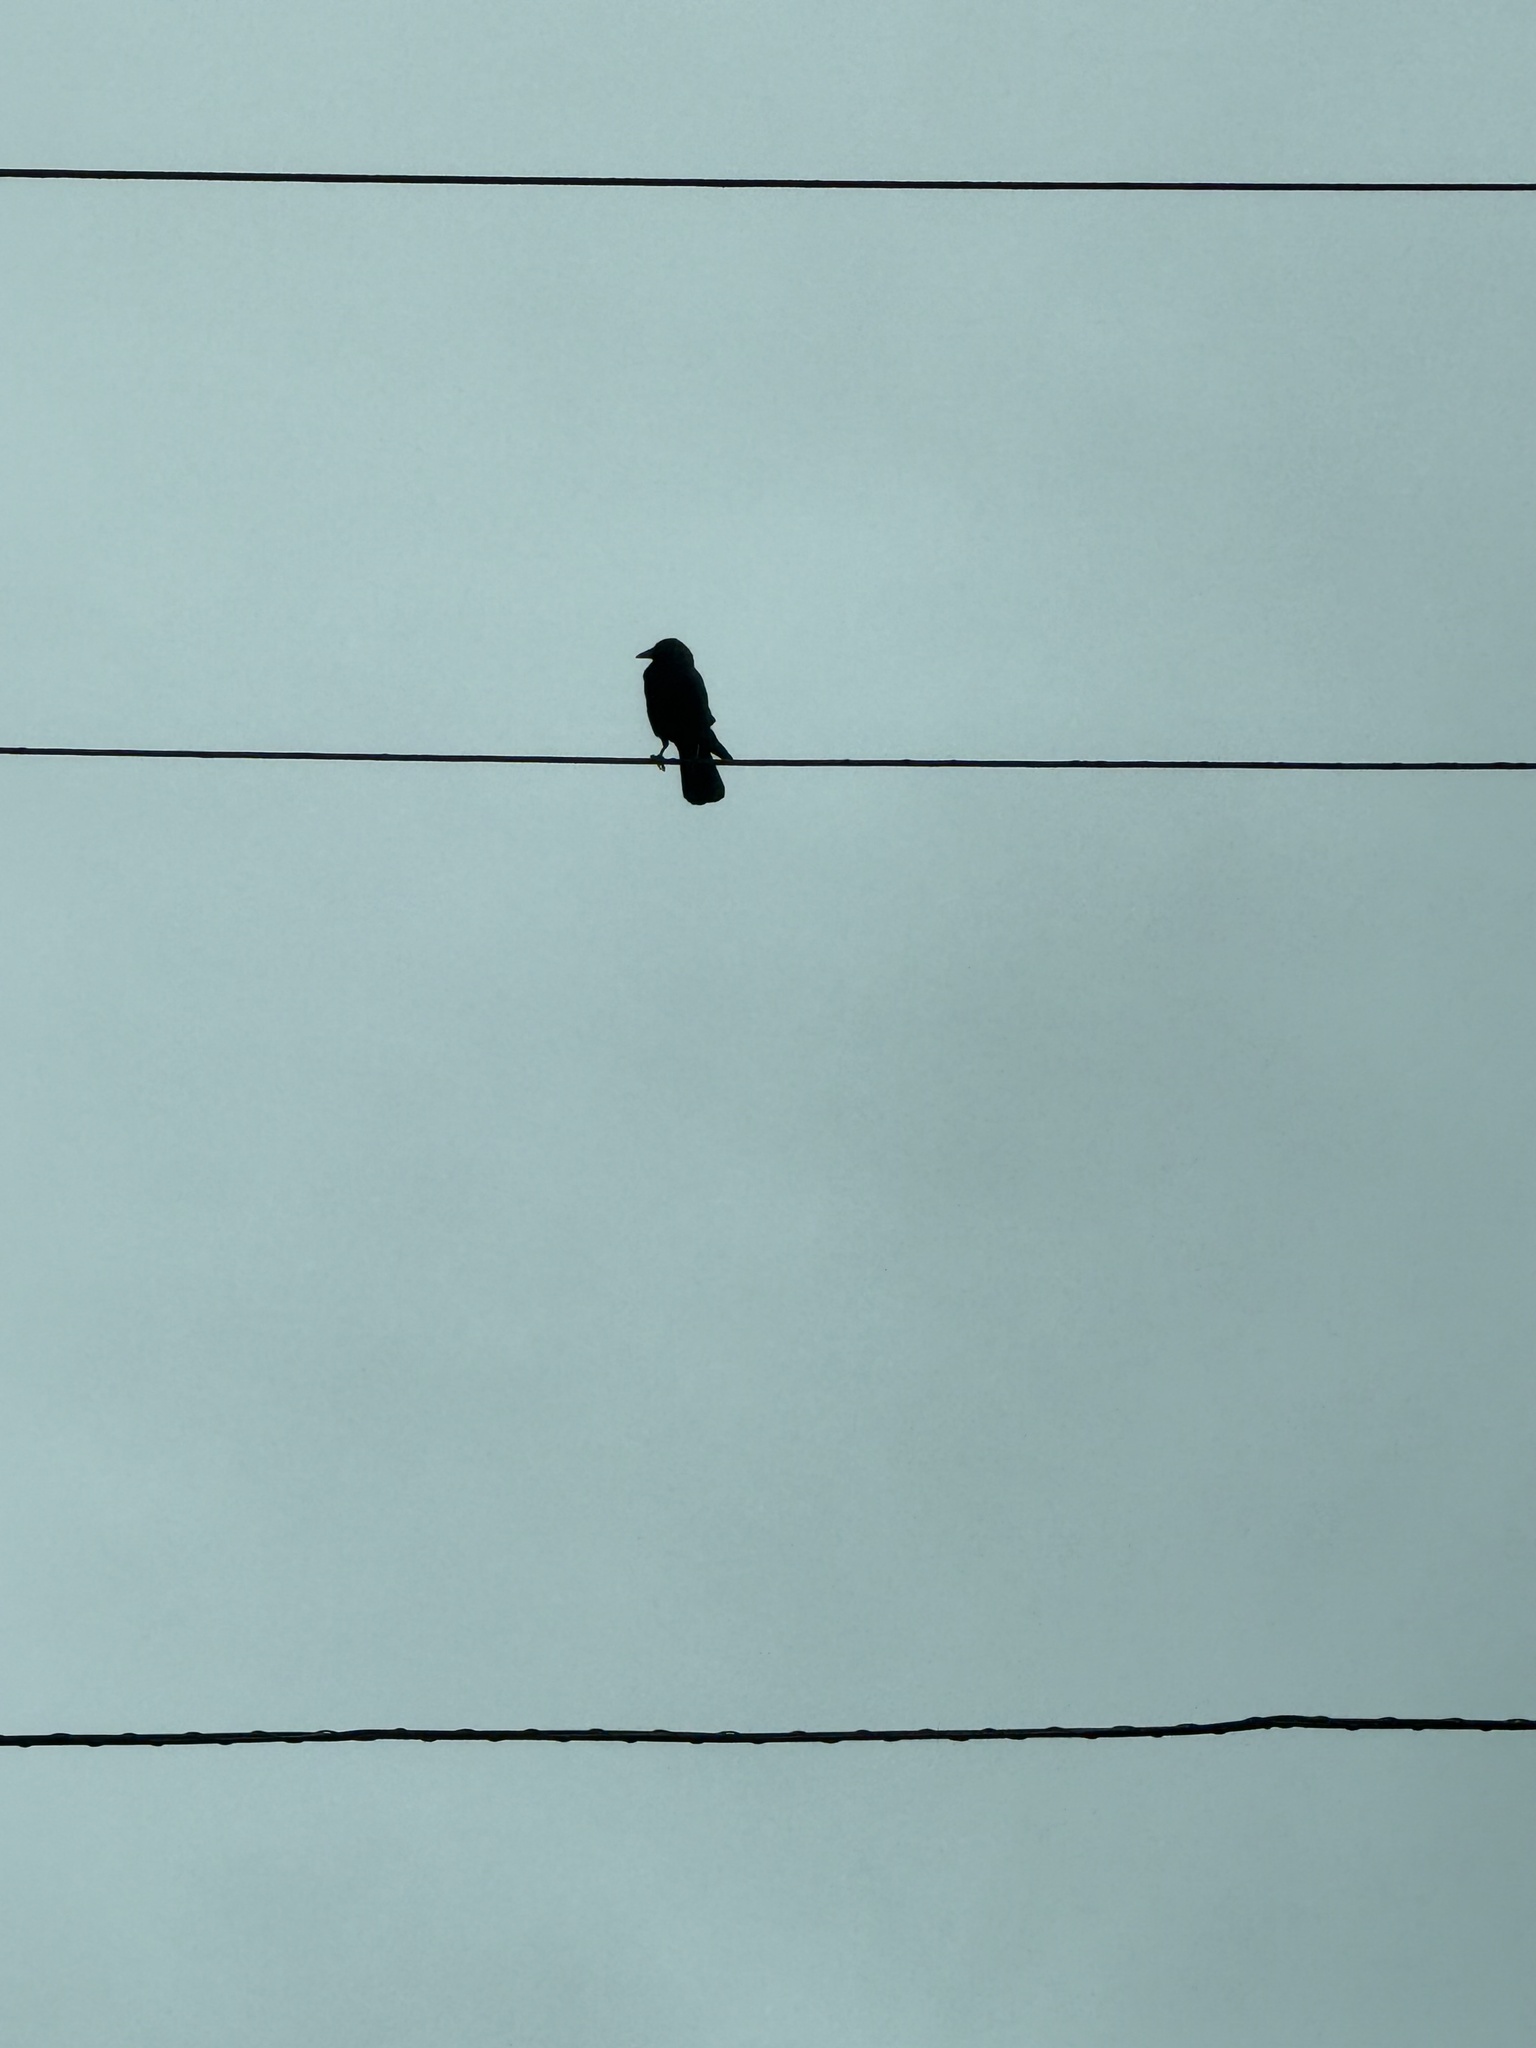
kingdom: Animalia
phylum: Chordata
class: Aves
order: Passeriformes
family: Corvidae
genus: Corvus
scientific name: Corvus brachyrhynchos
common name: American crow
